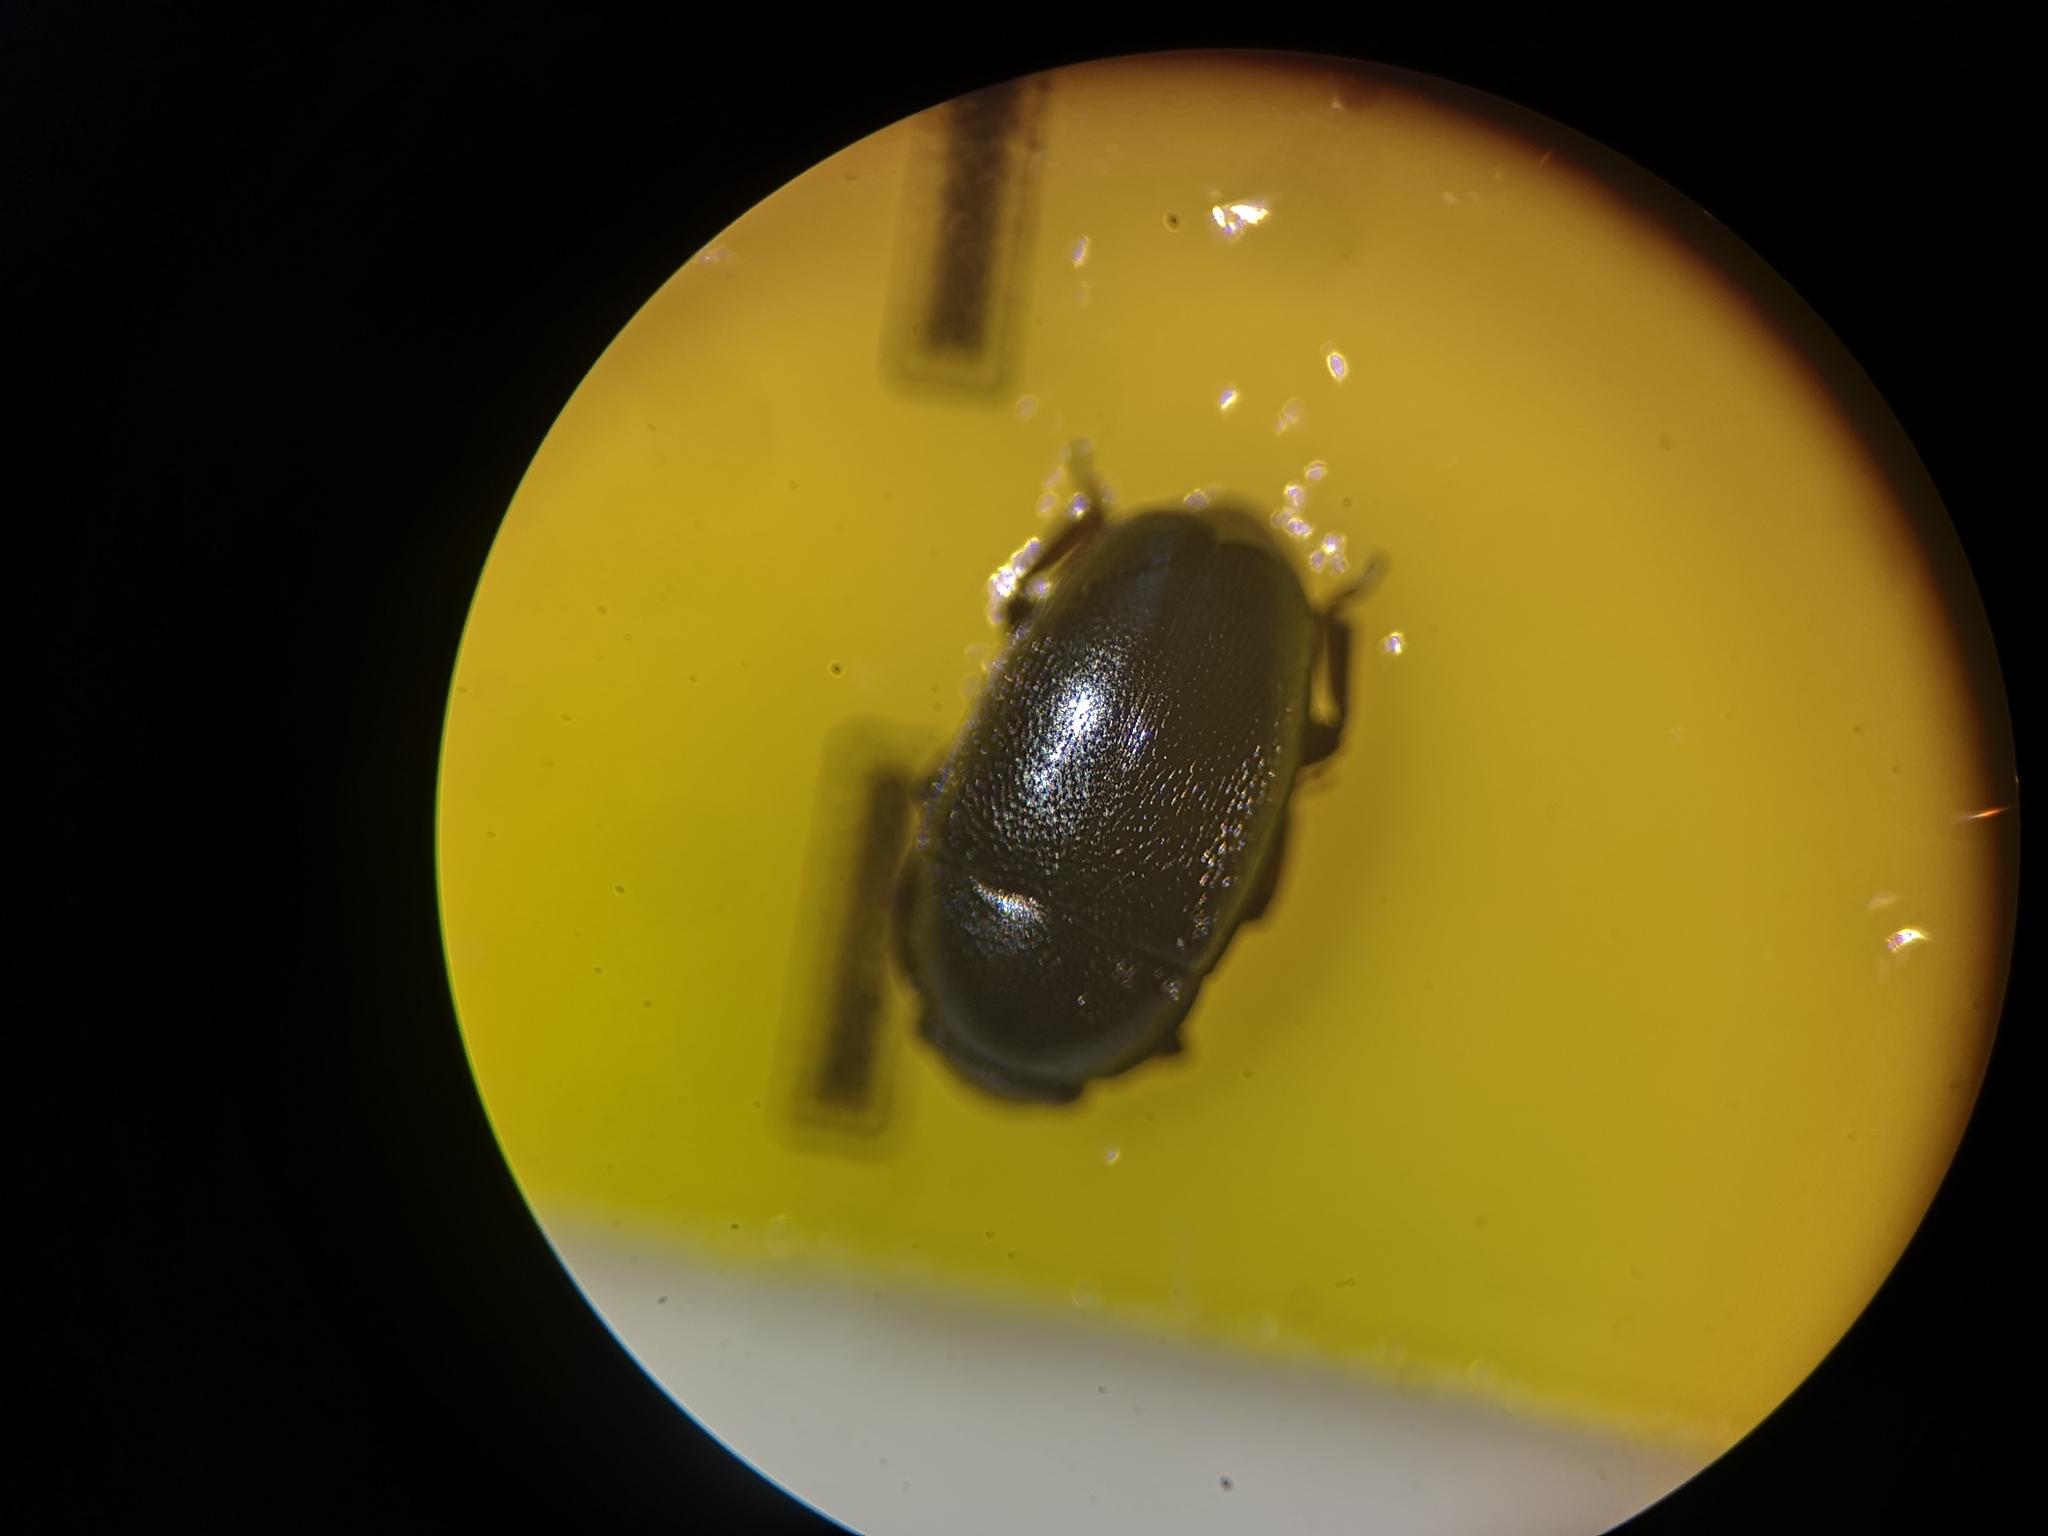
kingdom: Animalia
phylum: Arthropoda
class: Insecta
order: Coleoptera
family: Nitidulidae
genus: Brassicogethes
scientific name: Brassicogethes aeneus
